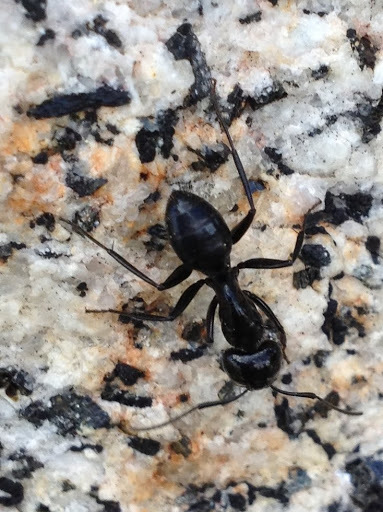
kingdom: Animalia
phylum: Arthropoda
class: Insecta
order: Hymenoptera
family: Formicidae
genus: Camponotus
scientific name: Camponotus
